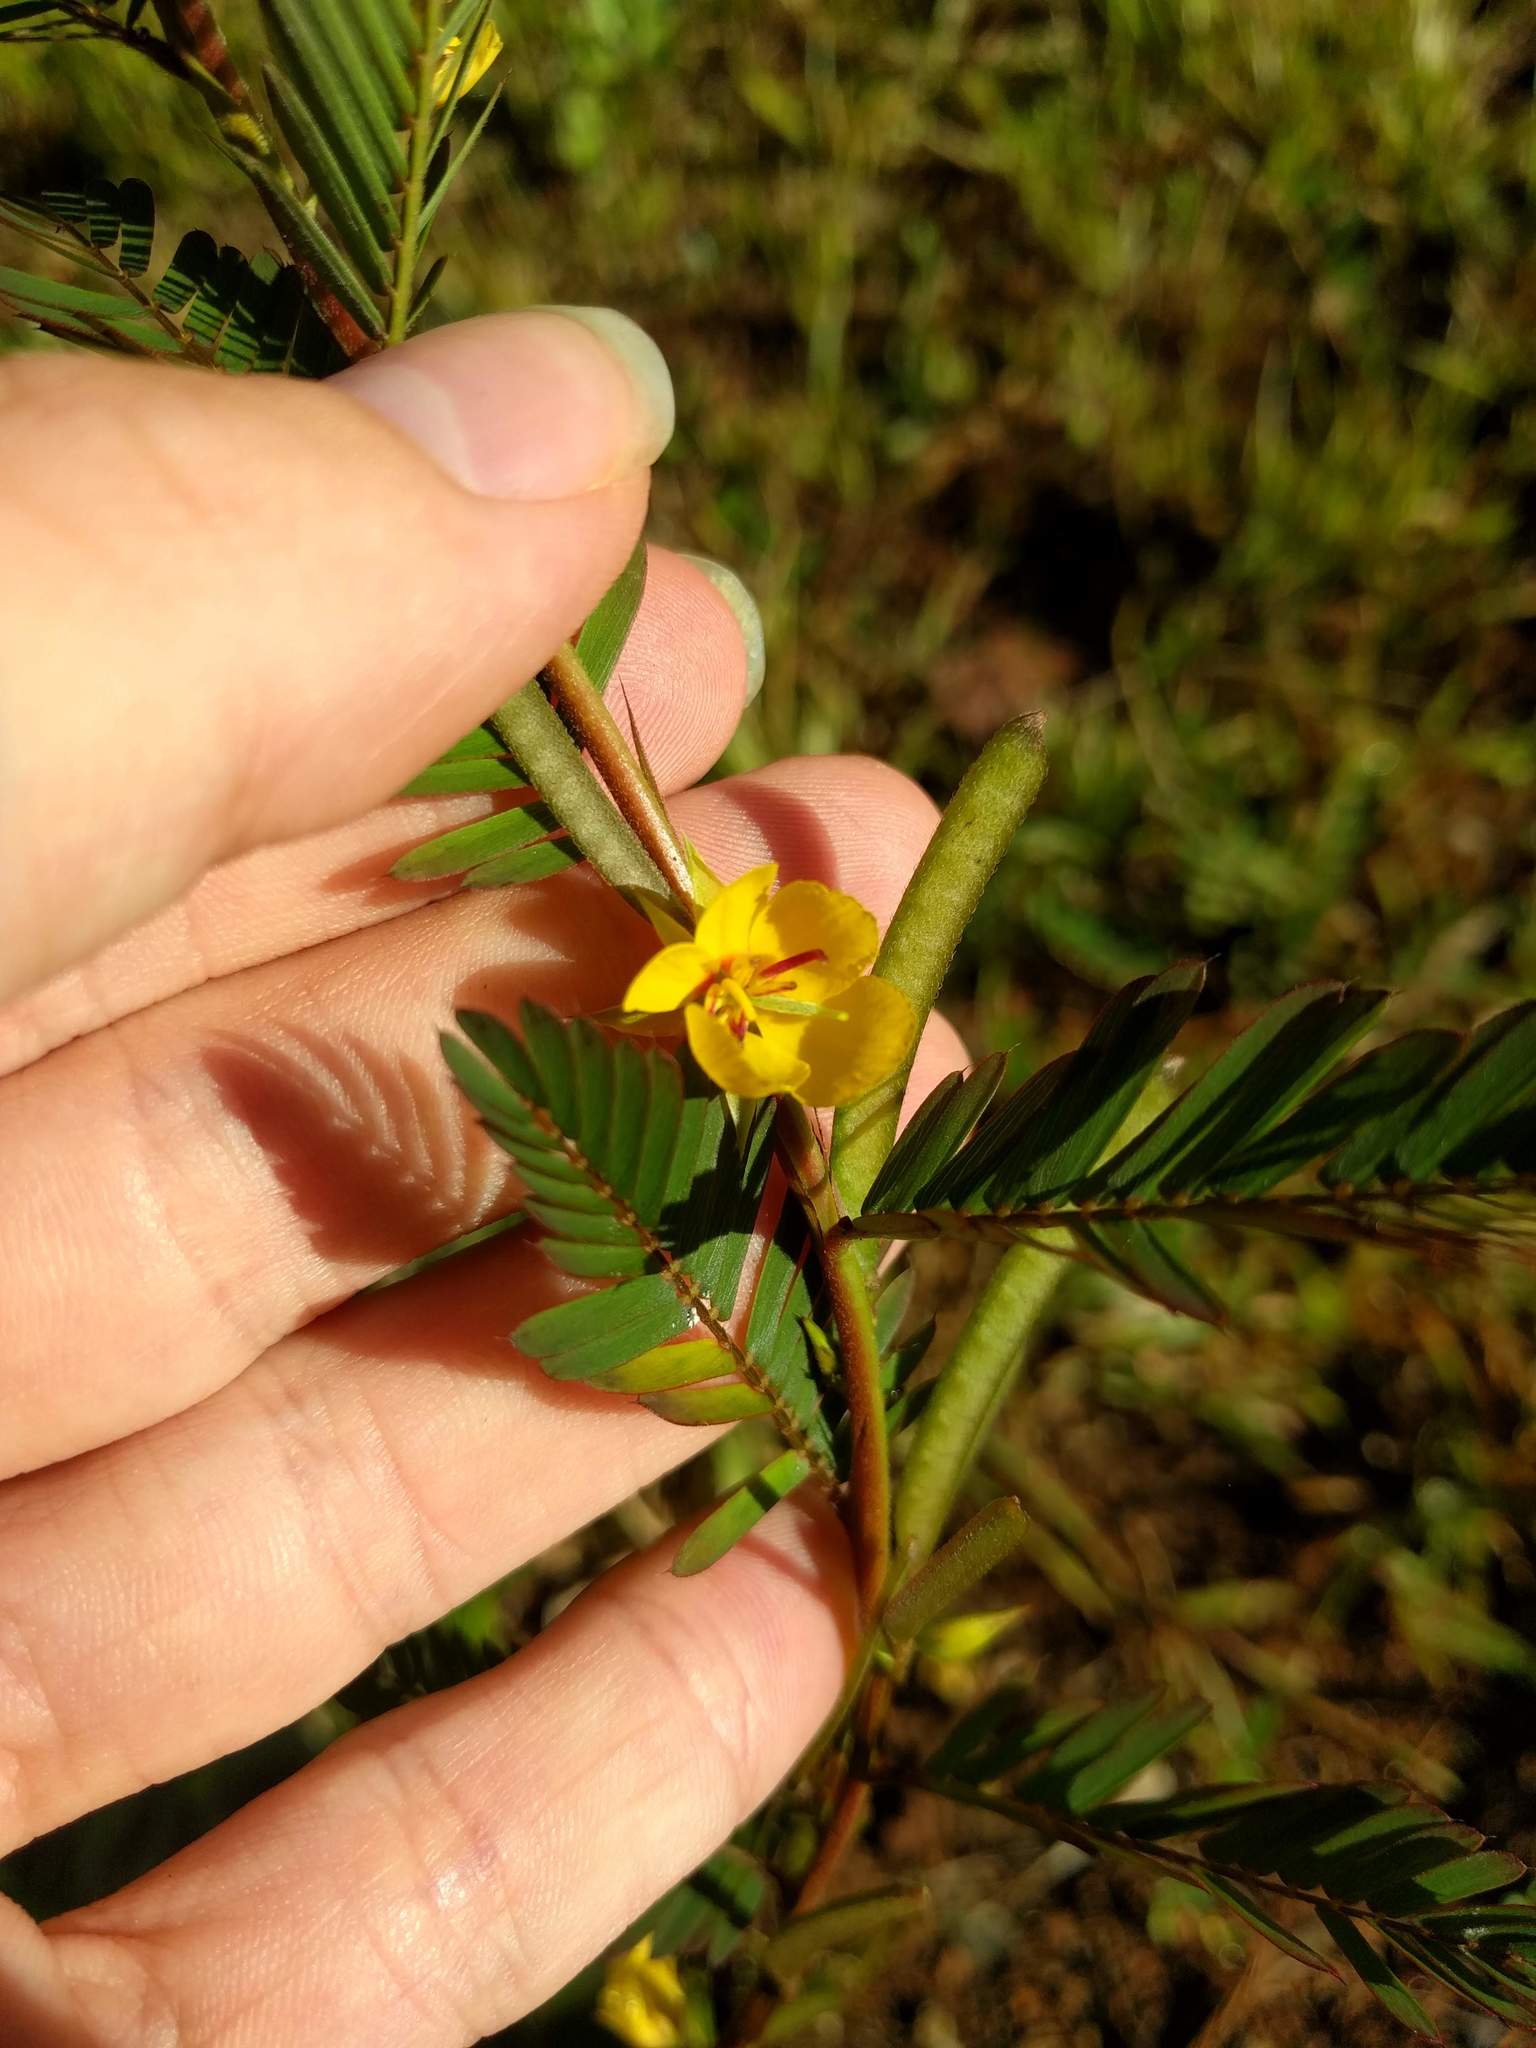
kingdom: Plantae
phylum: Tracheophyta
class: Magnoliopsida
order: Fabales
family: Fabaceae
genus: Chamaecrista
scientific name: Chamaecrista nictitans
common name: Sensitive cassia
